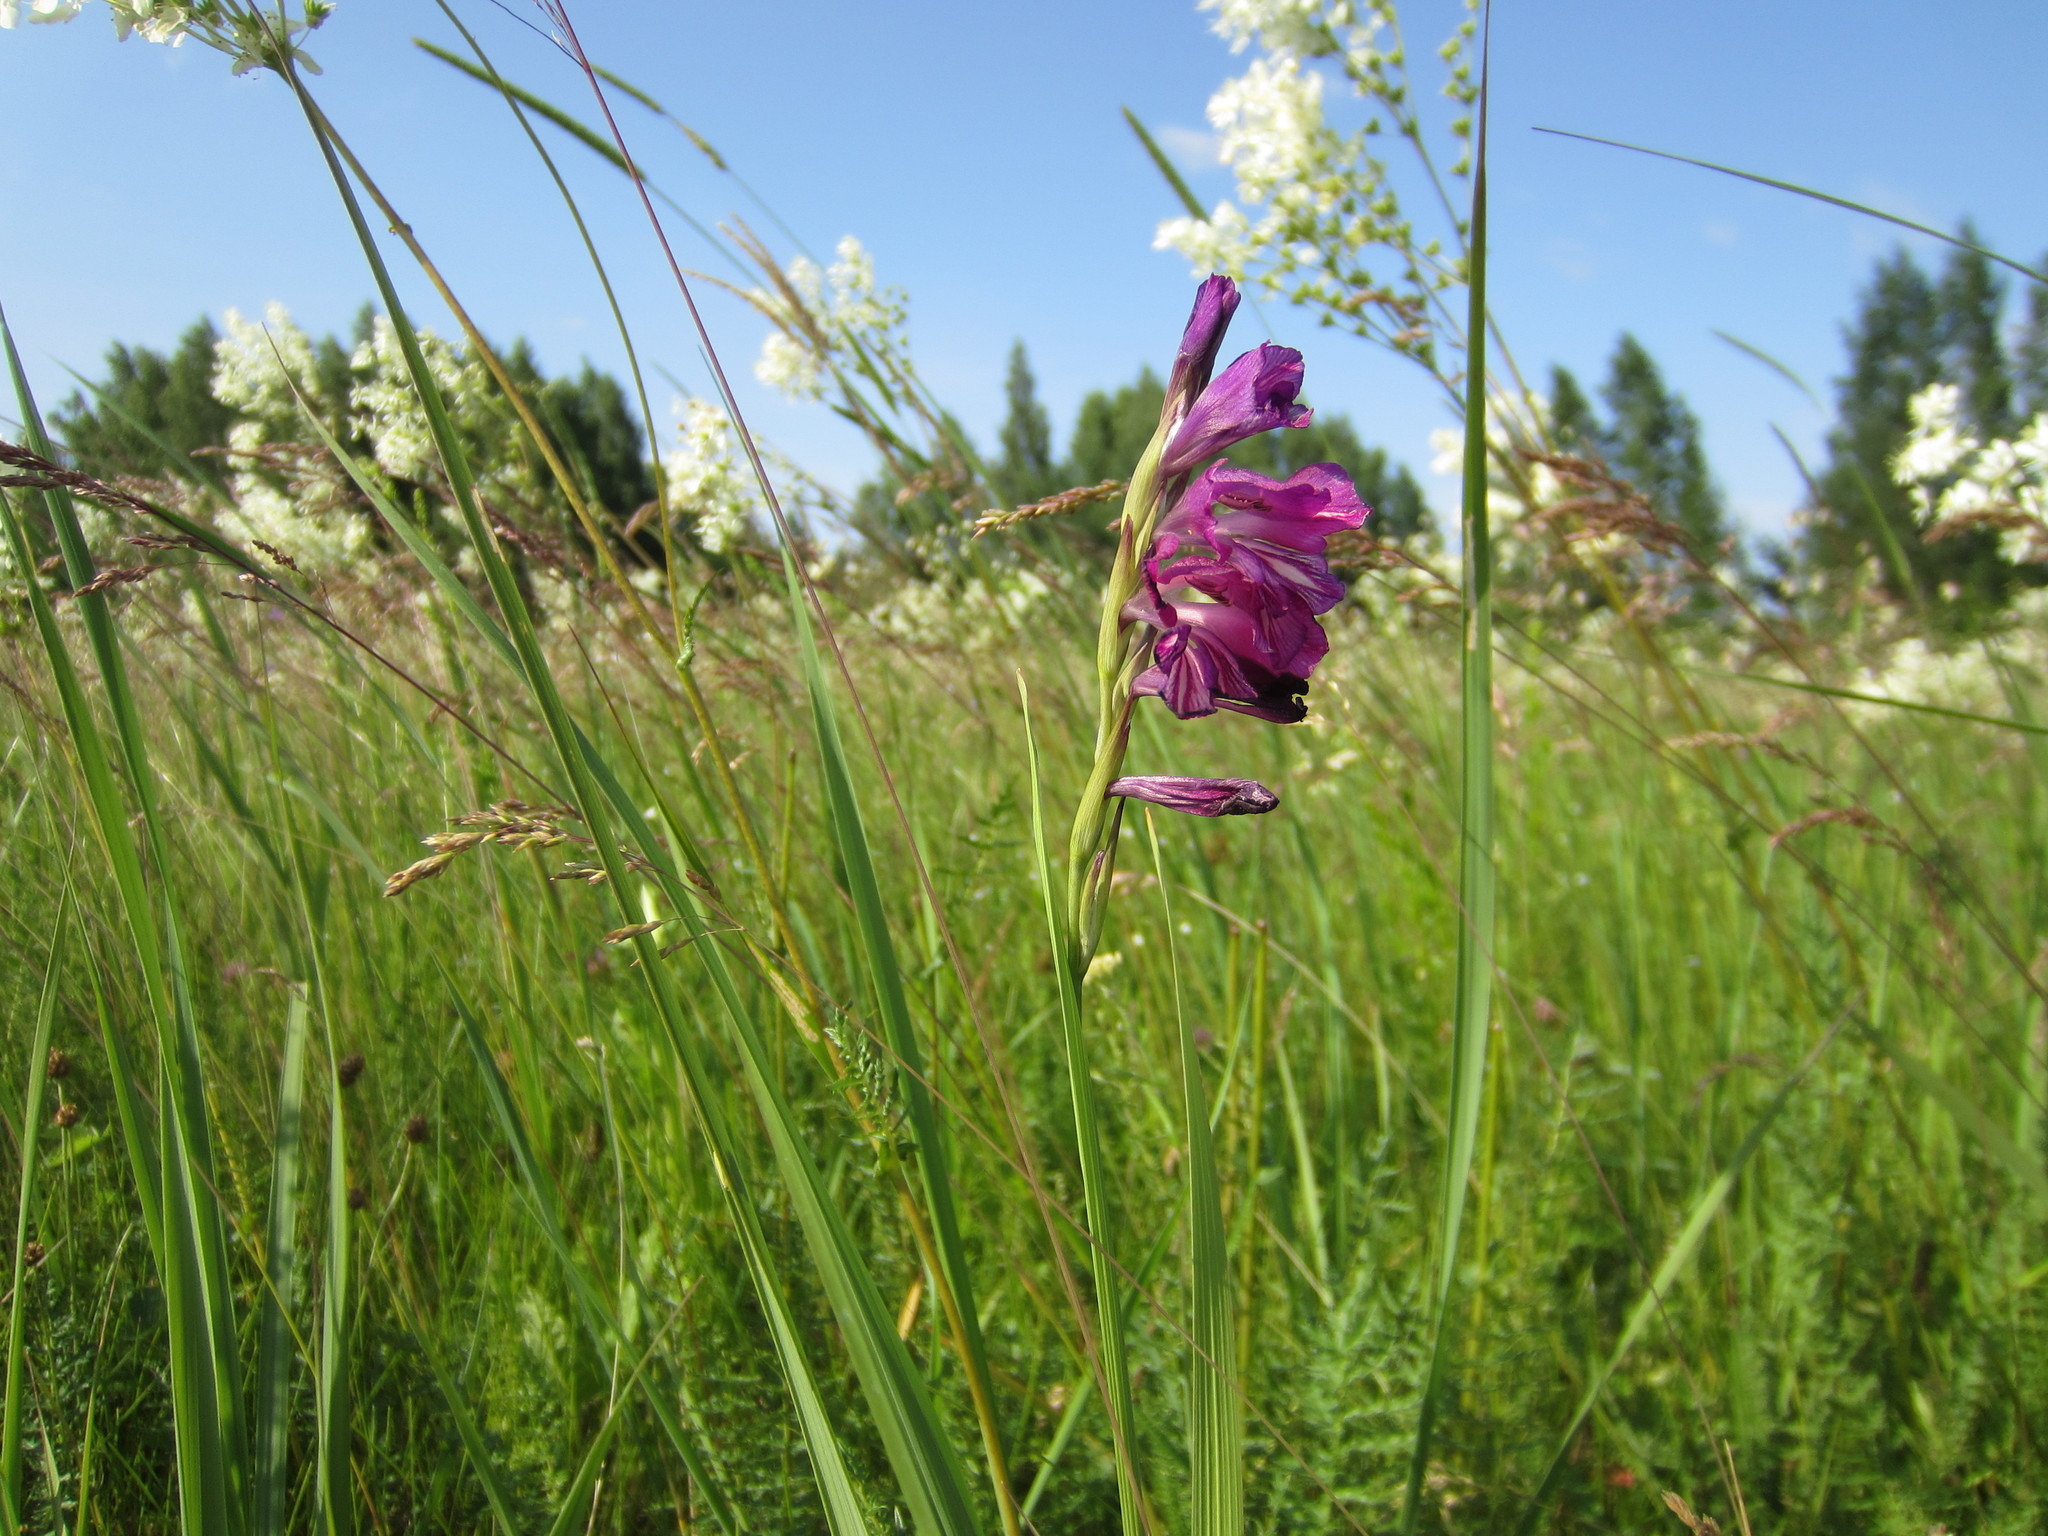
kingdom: Plantae
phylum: Tracheophyta
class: Liliopsida
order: Asparagales
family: Iridaceae
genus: Gladiolus
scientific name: Gladiolus tenuis
